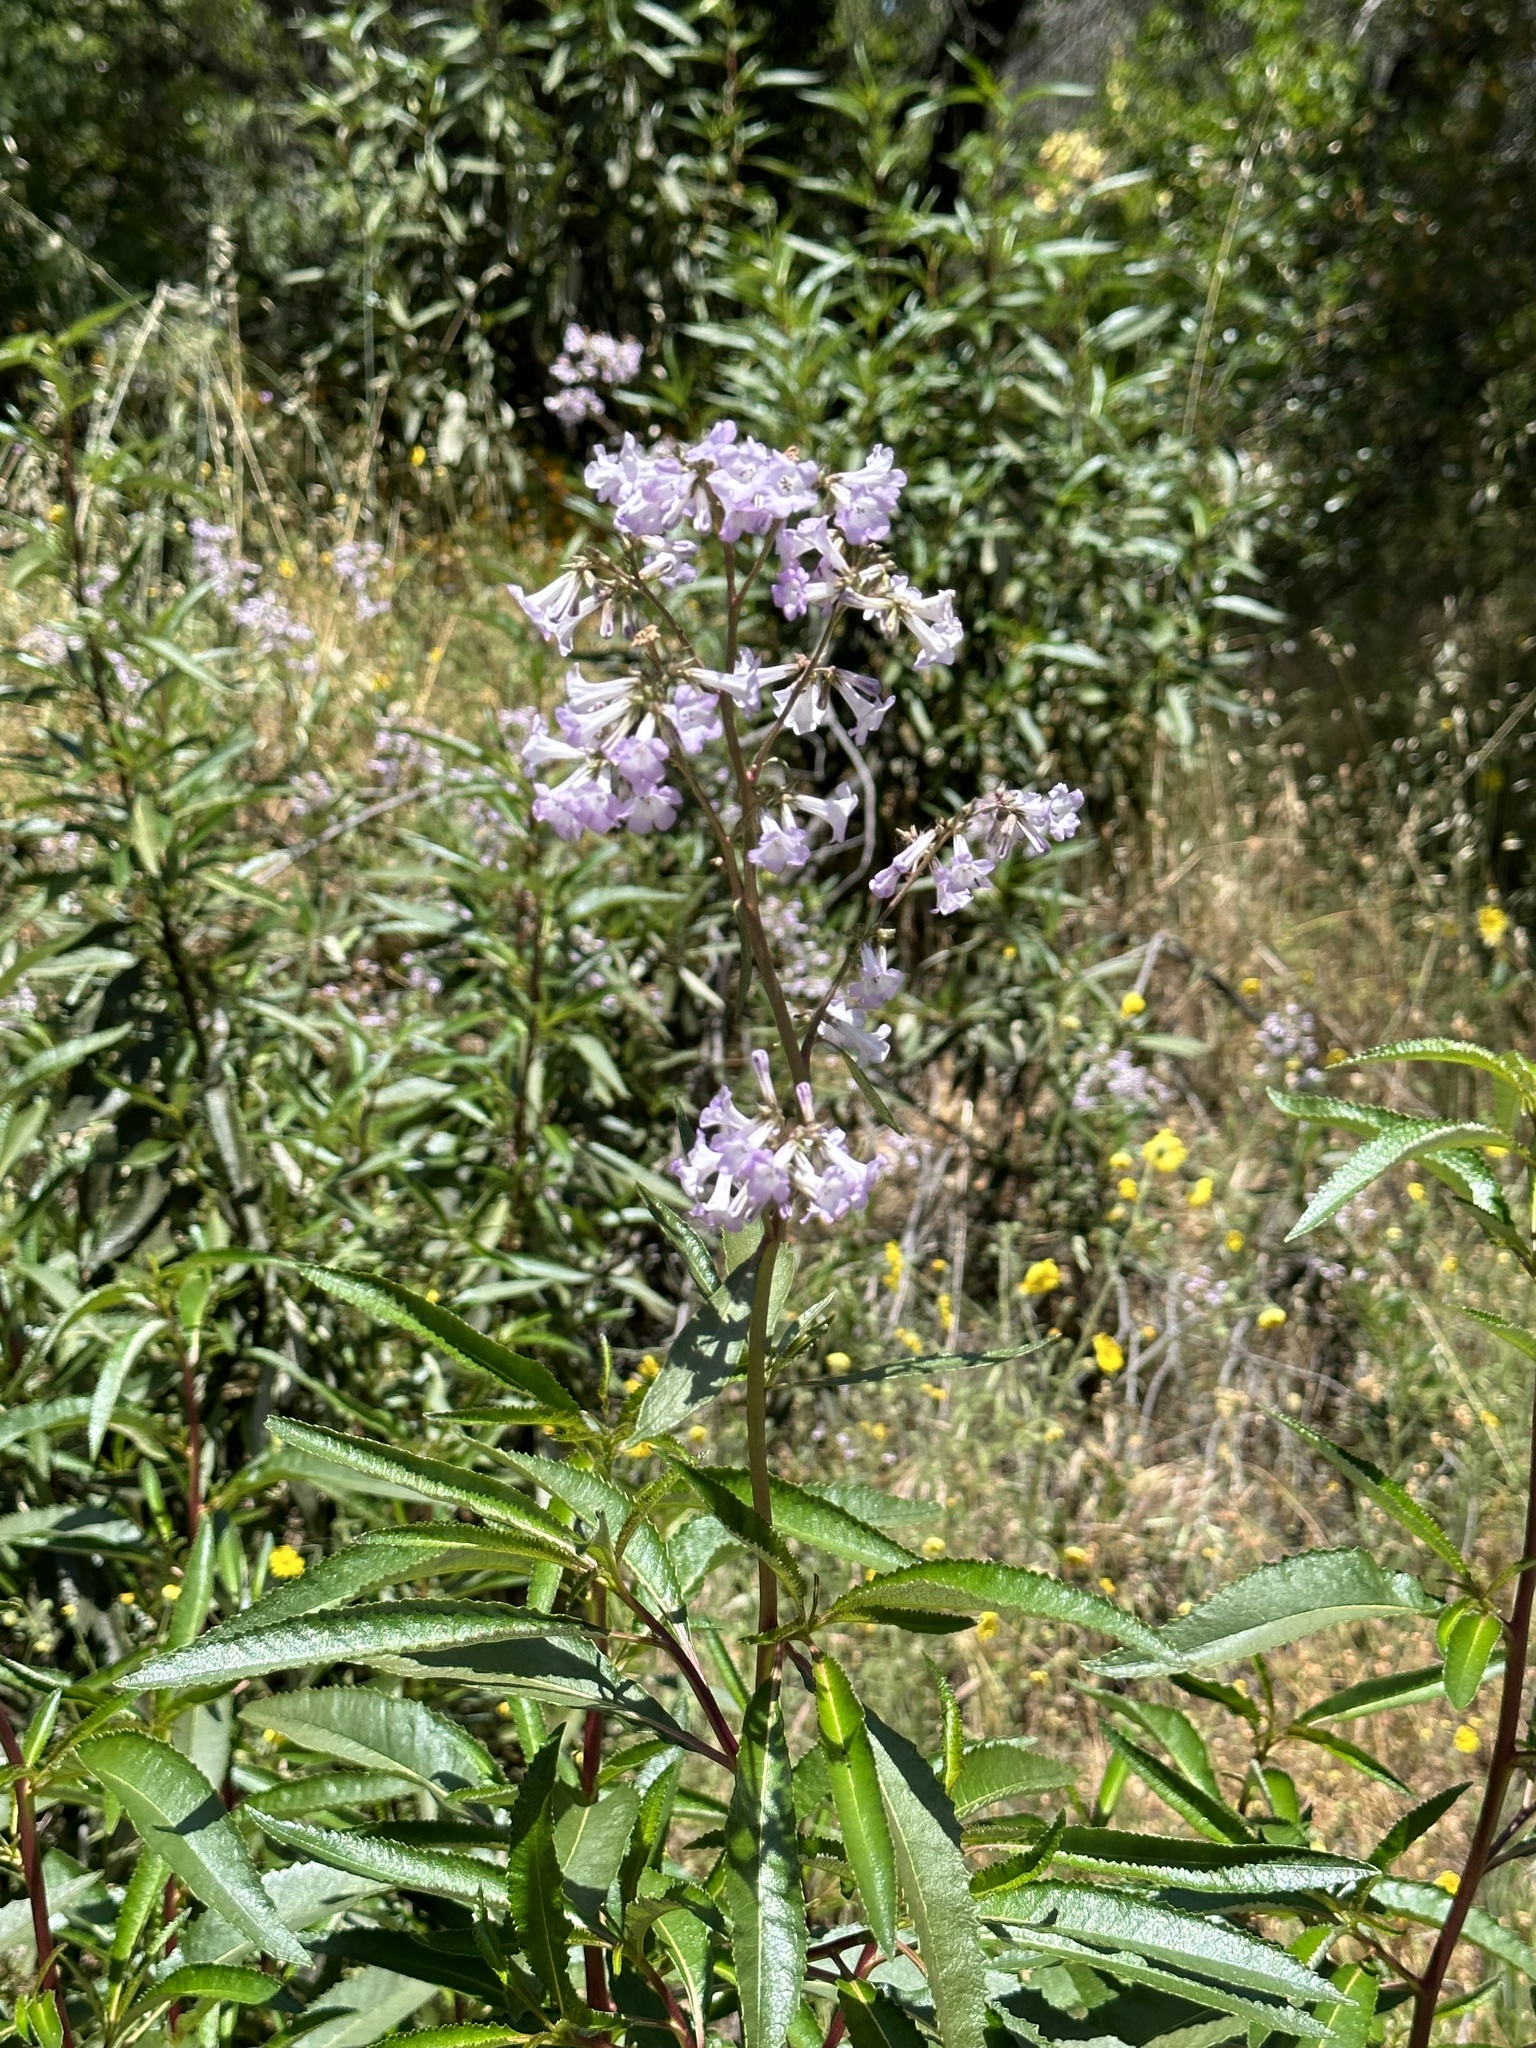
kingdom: Plantae
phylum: Tracheophyta
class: Magnoliopsida
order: Boraginales
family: Namaceae
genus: Eriodictyon
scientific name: Eriodictyon californicum
